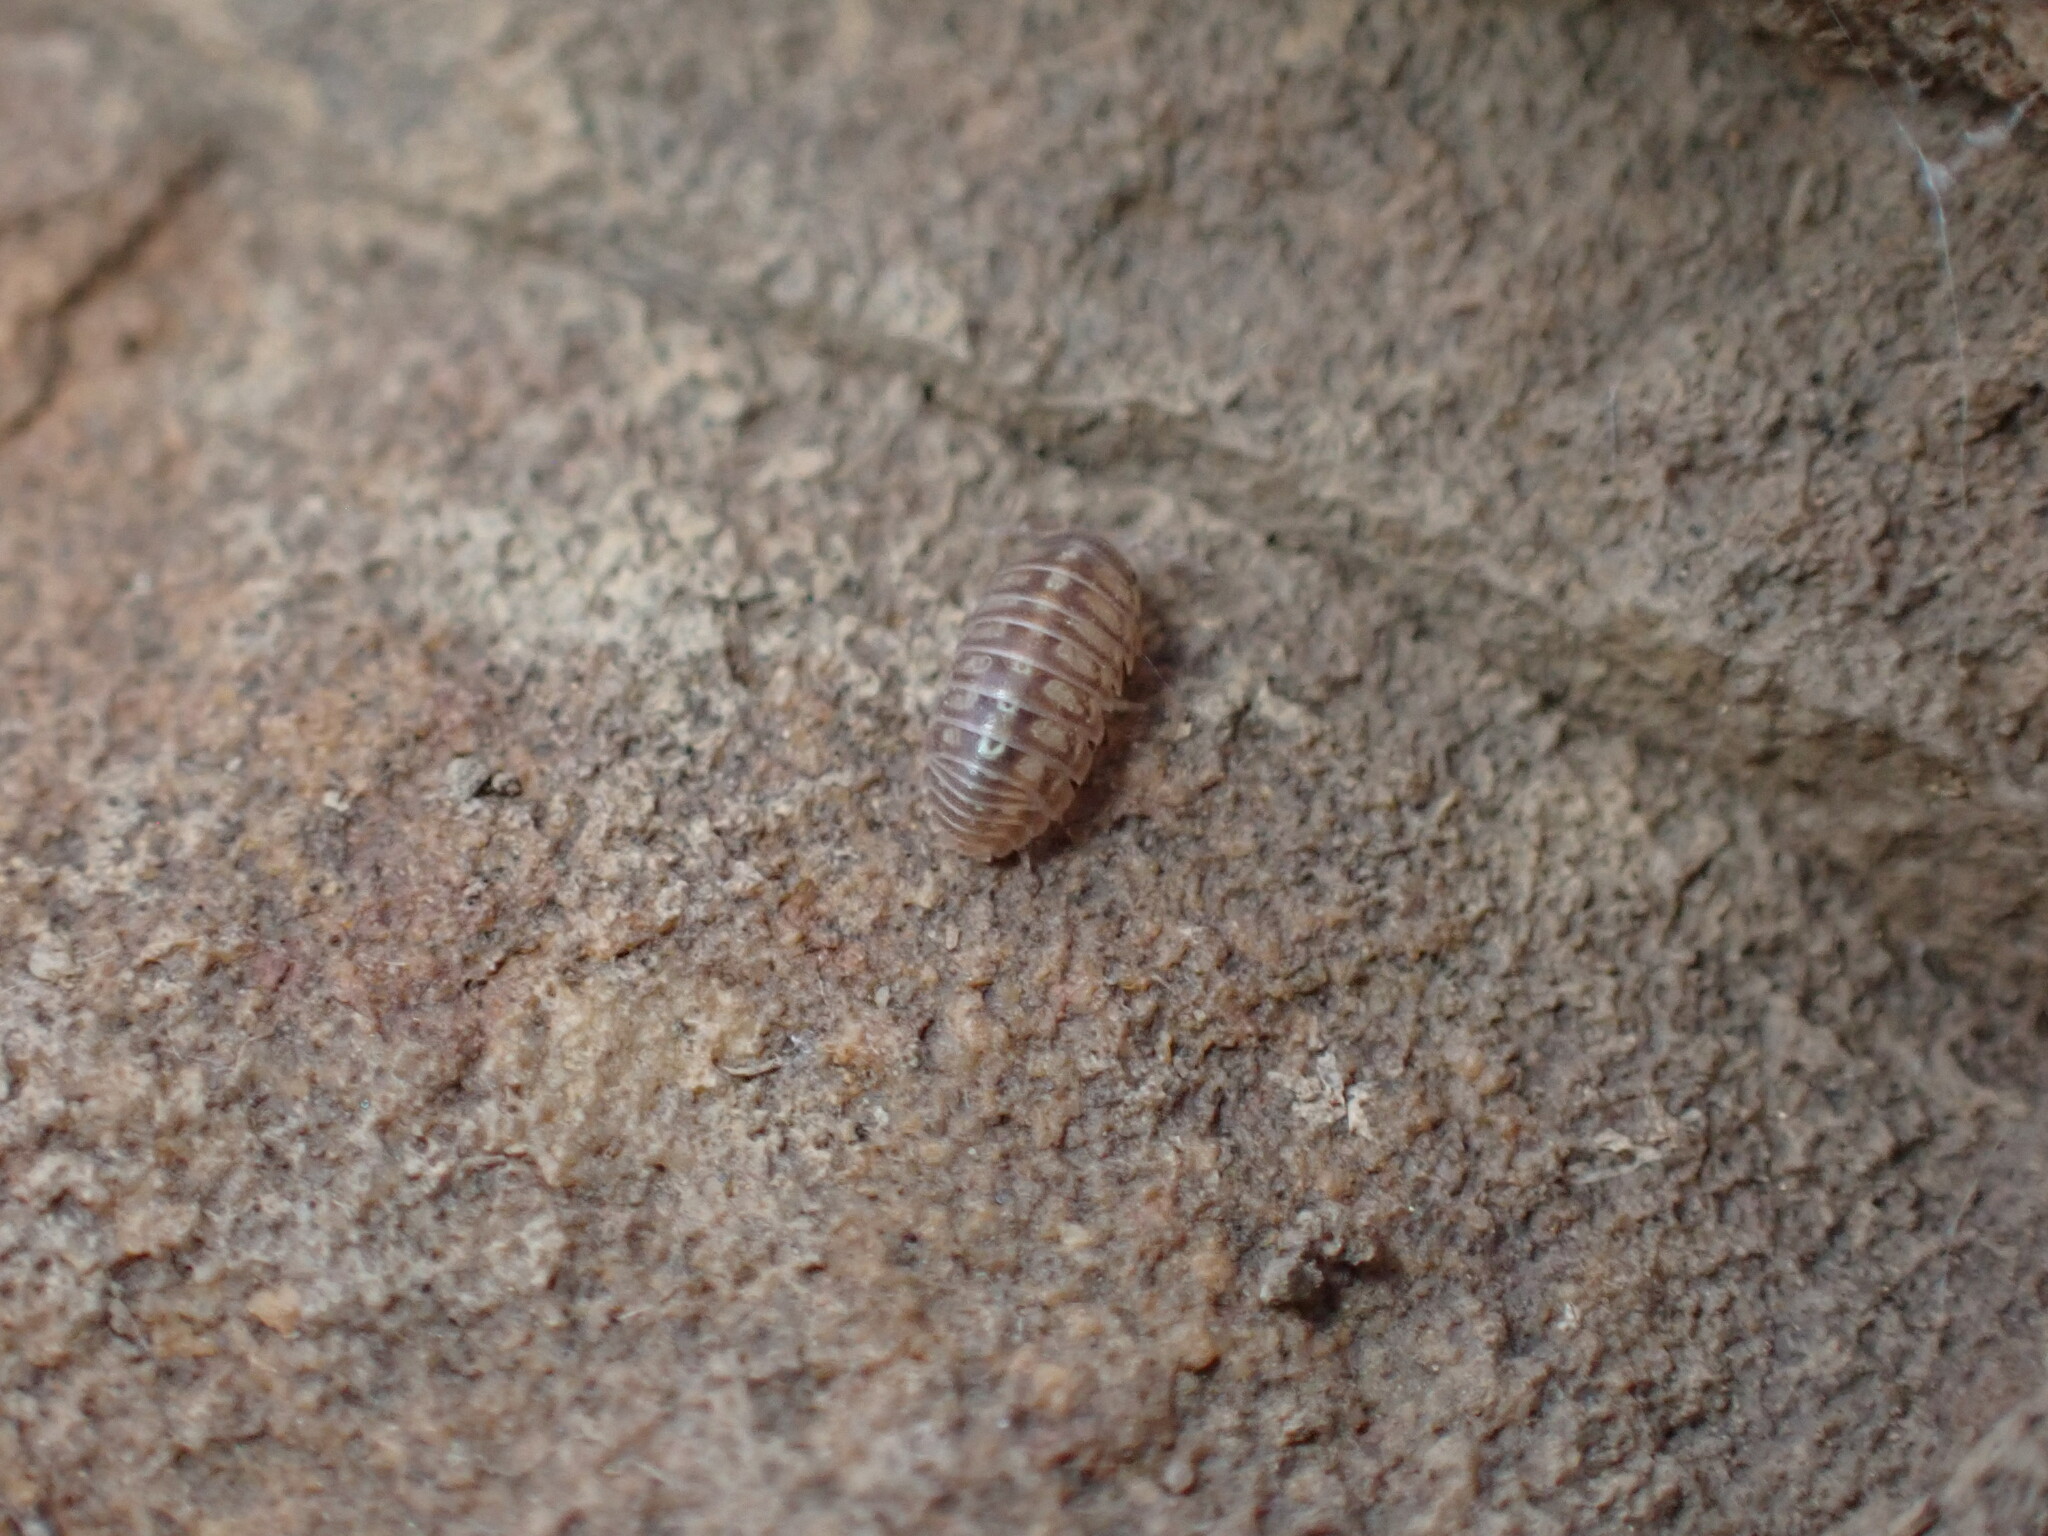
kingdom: Animalia
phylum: Arthropoda
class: Malacostraca
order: Isopoda
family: Armadillidiidae
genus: Armadillidium
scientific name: Armadillidium vulgare
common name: Common pill woodlouse
